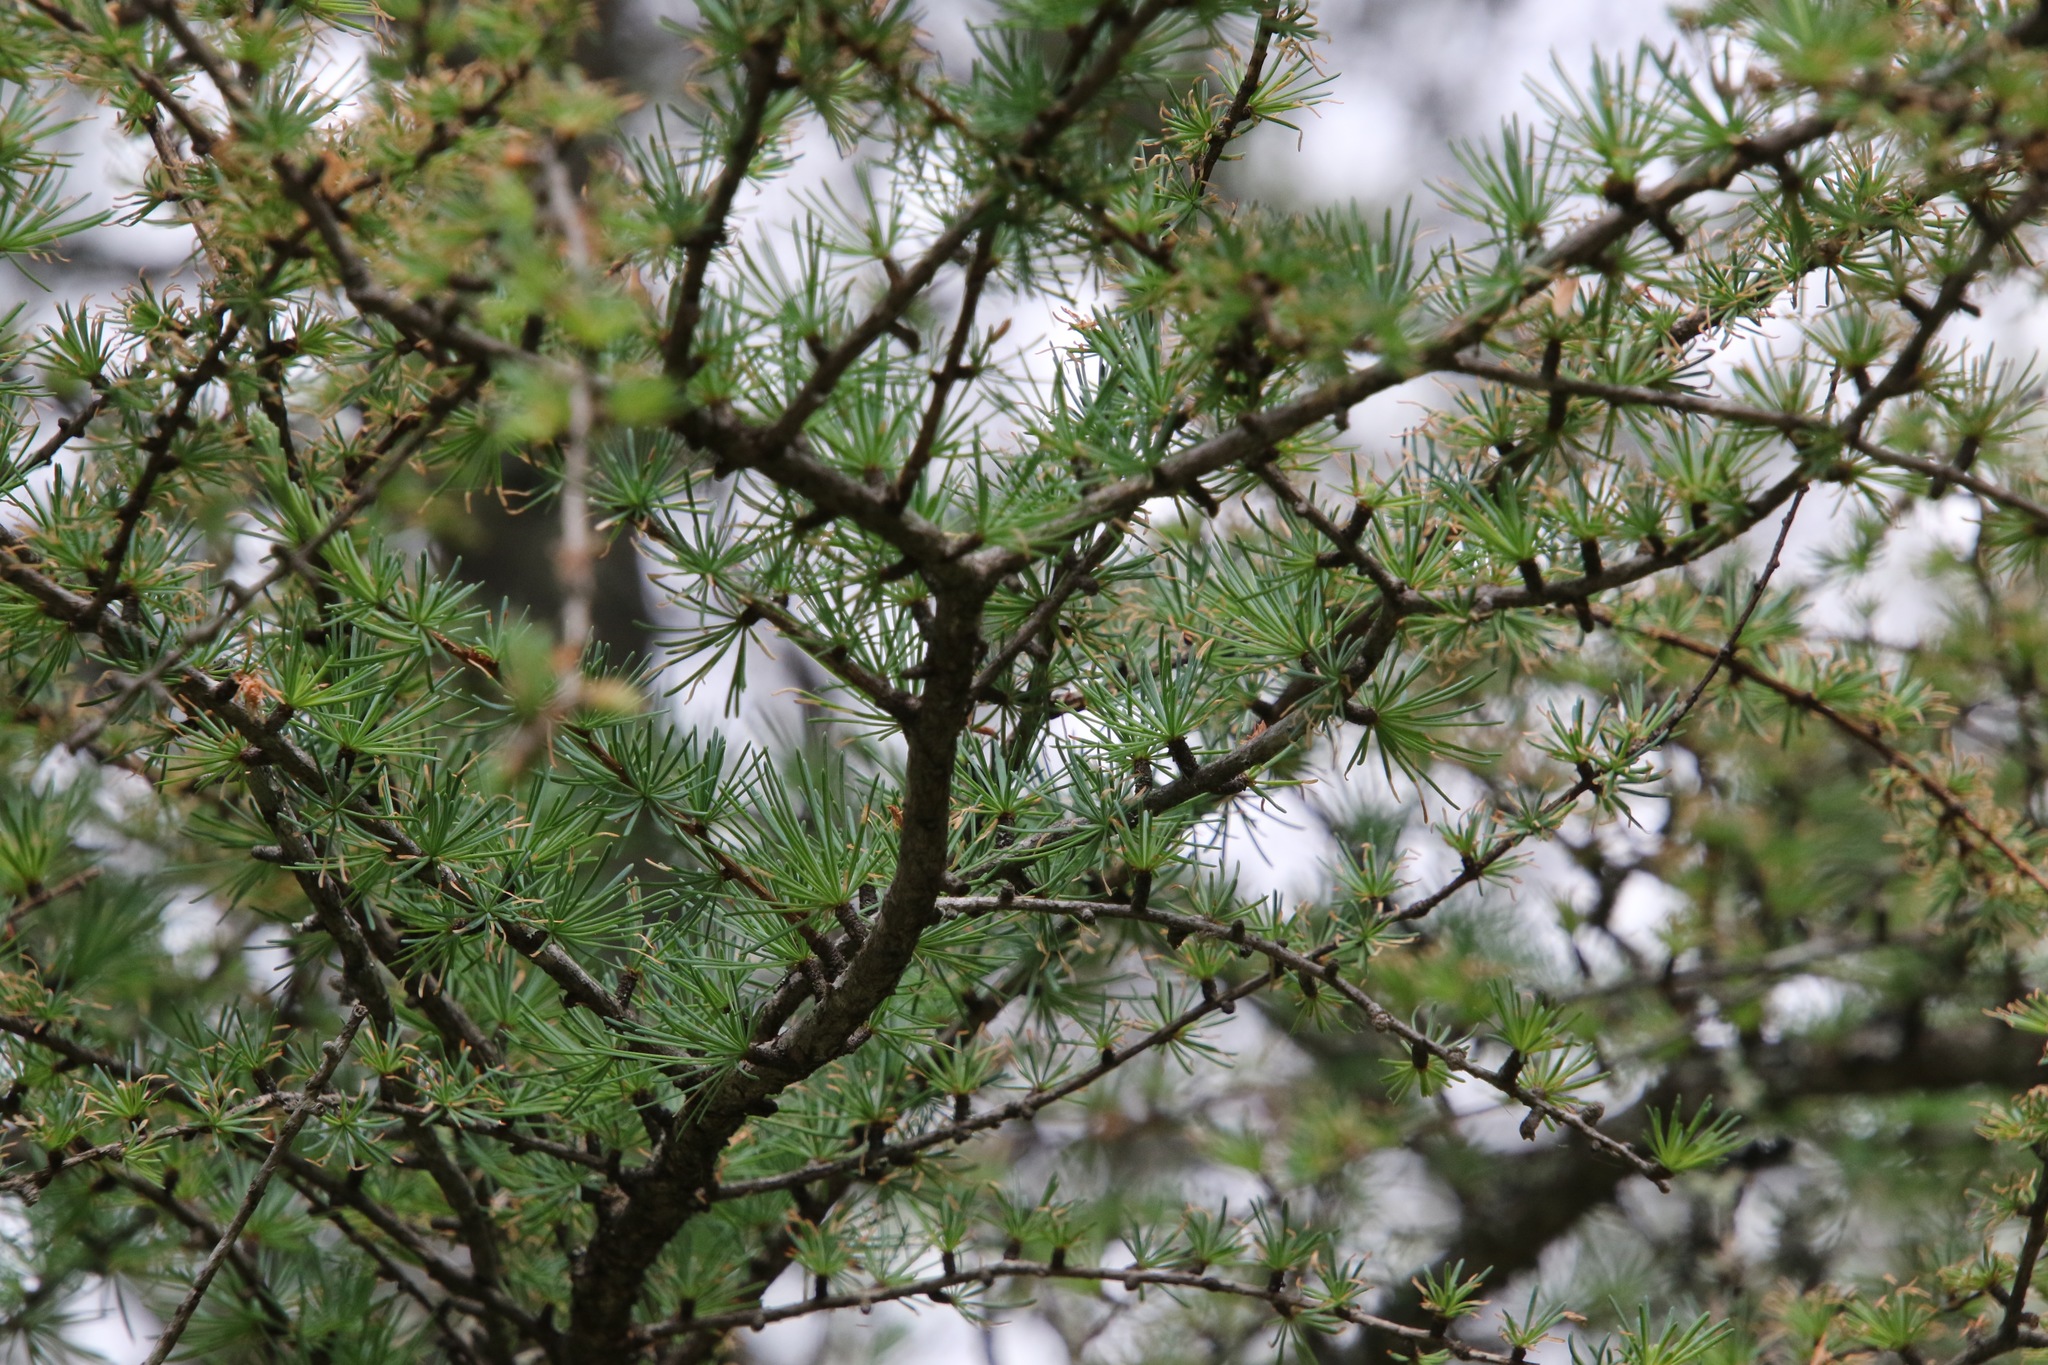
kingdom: Plantae
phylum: Tracheophyta
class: Pinopsida
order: Pinales
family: Pinaceae
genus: Larix
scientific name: Larix laricina
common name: American larch
